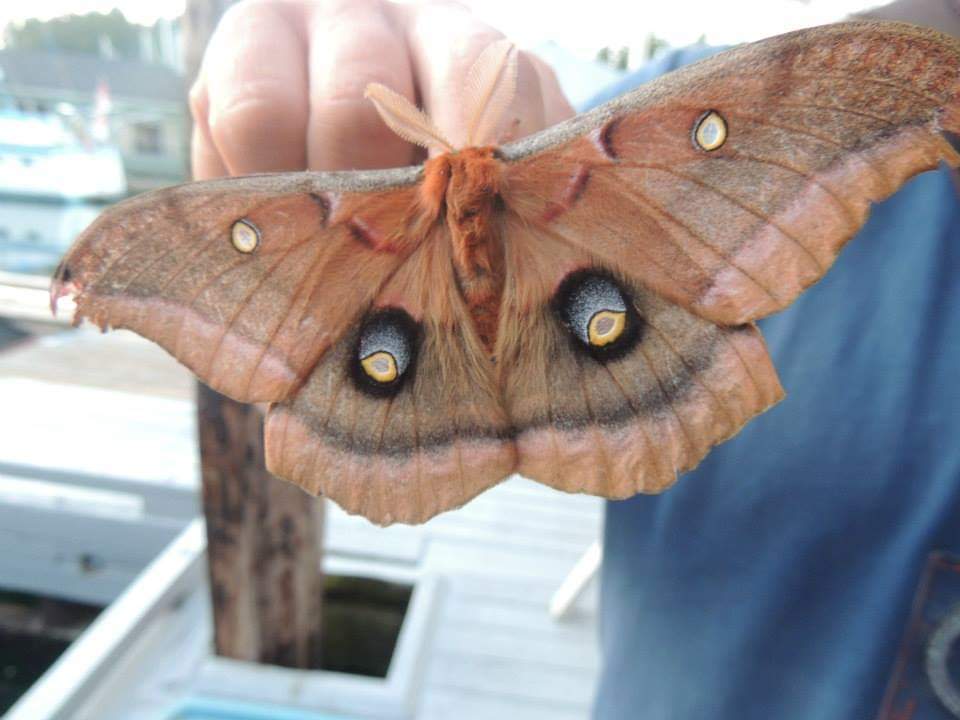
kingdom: Animalia
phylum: Arthropoda
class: Insecta
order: Lepidoptera
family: Saturniidae
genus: Antheraea
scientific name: Antheraea polyphemus
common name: Polyphemus moth
